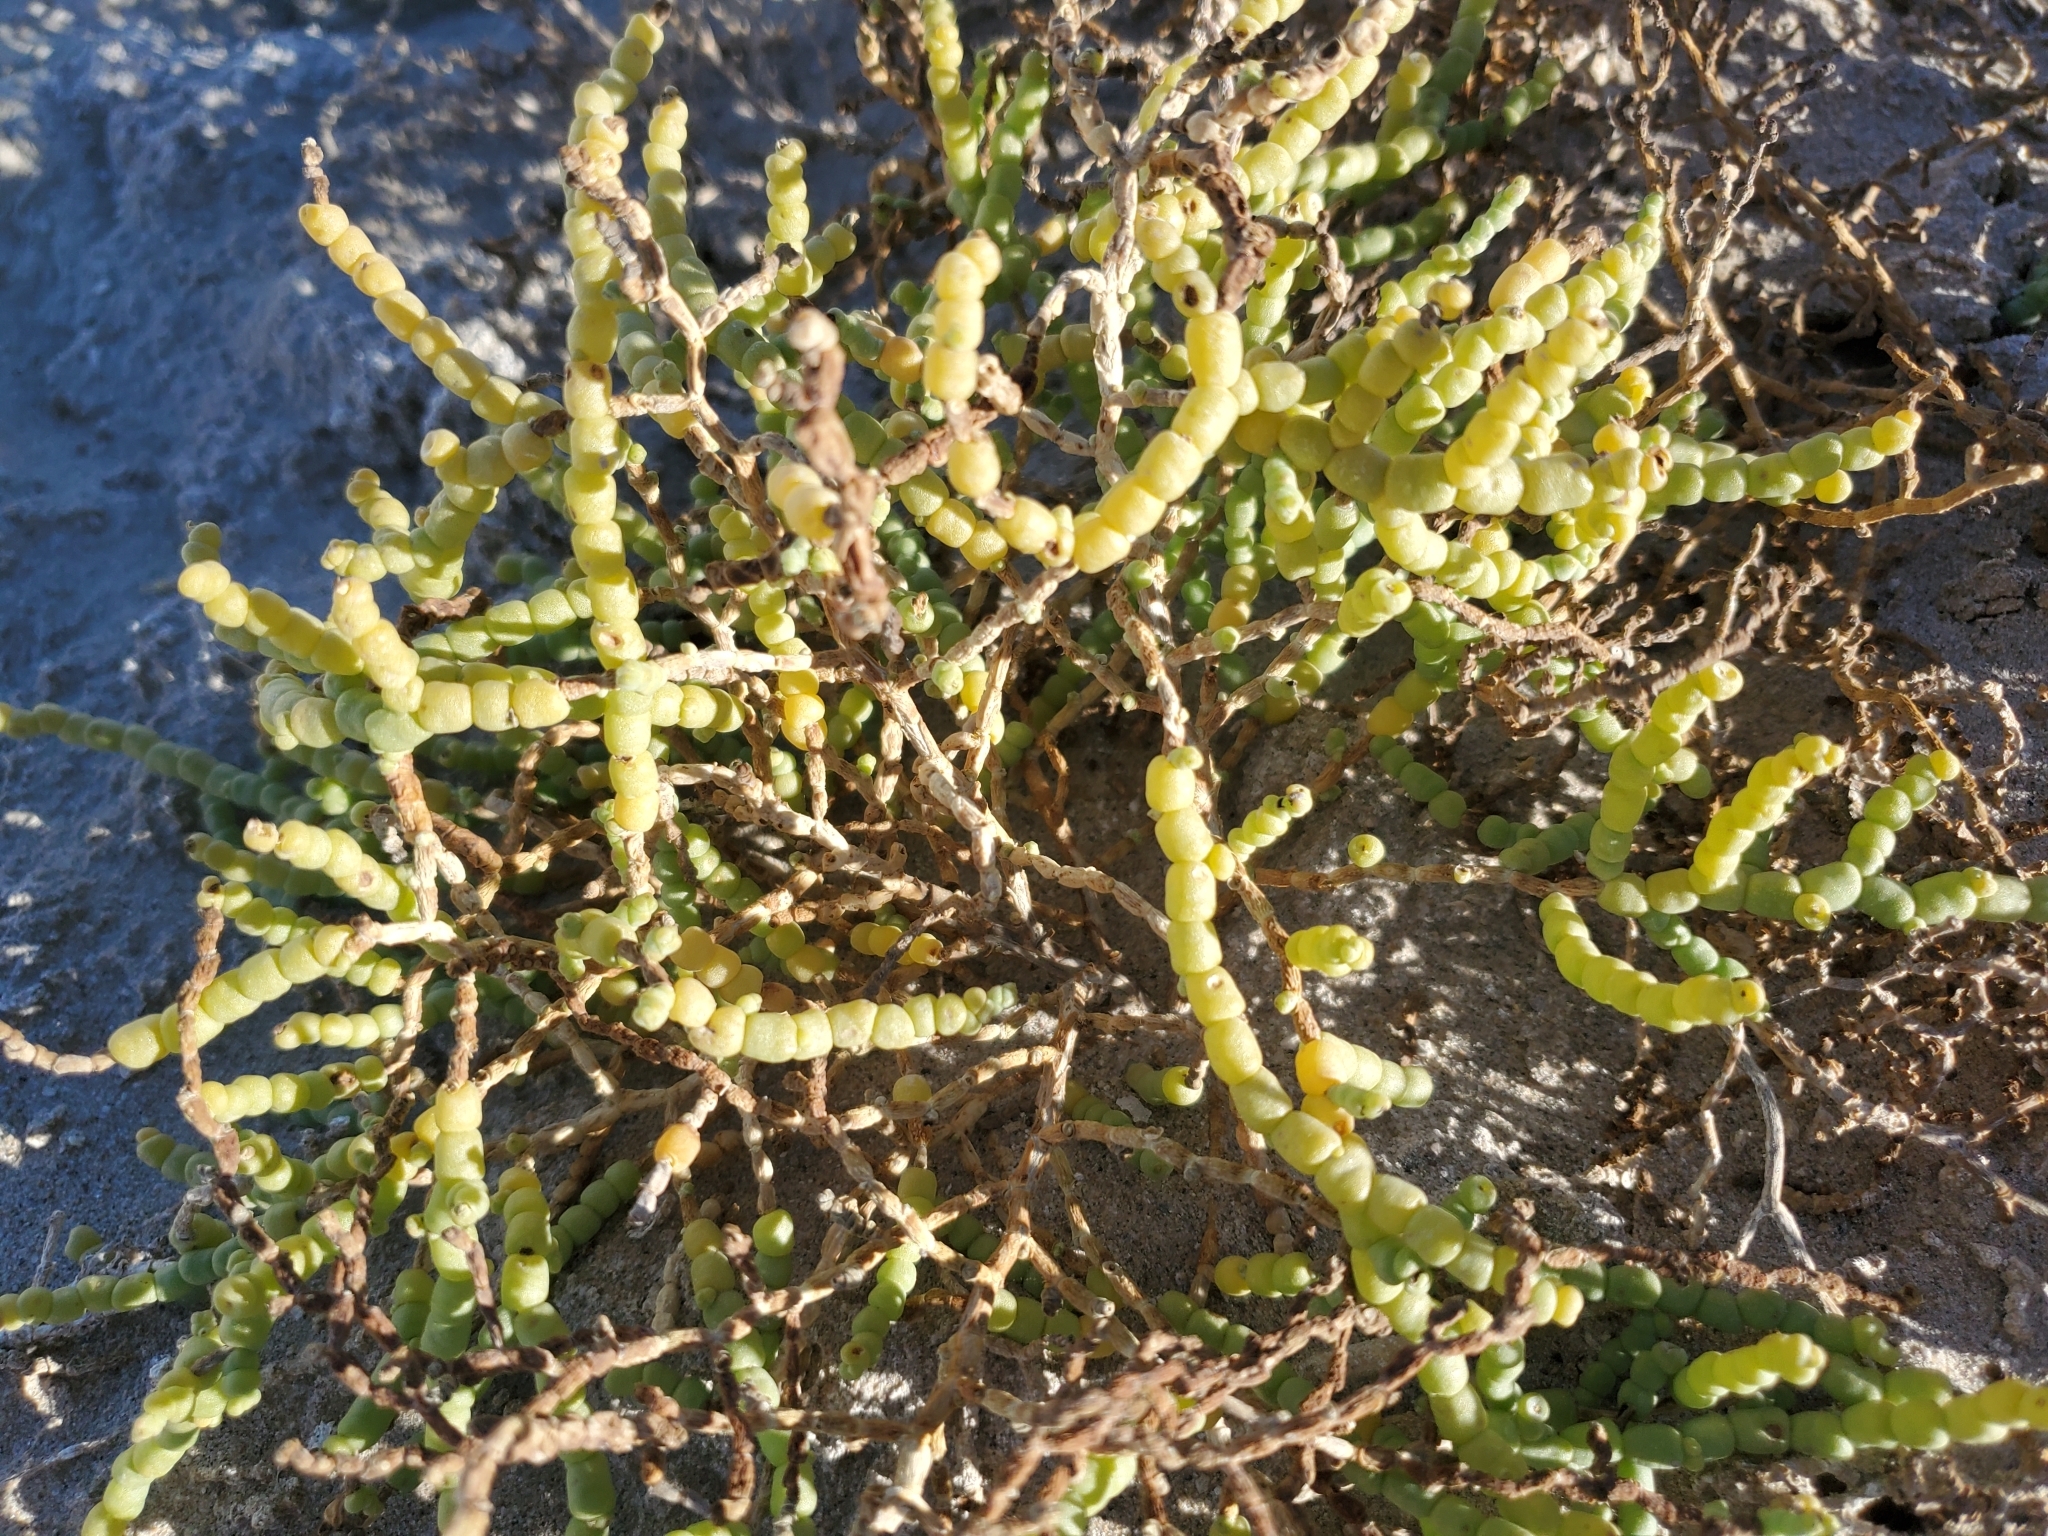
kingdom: Plantae
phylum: Tracheophyta
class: Magnoliopsida
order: Caryophyllales
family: Amaranthaceae
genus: Allenrolfea
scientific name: Allenrolfea occidentalis
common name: Iodine-bush
